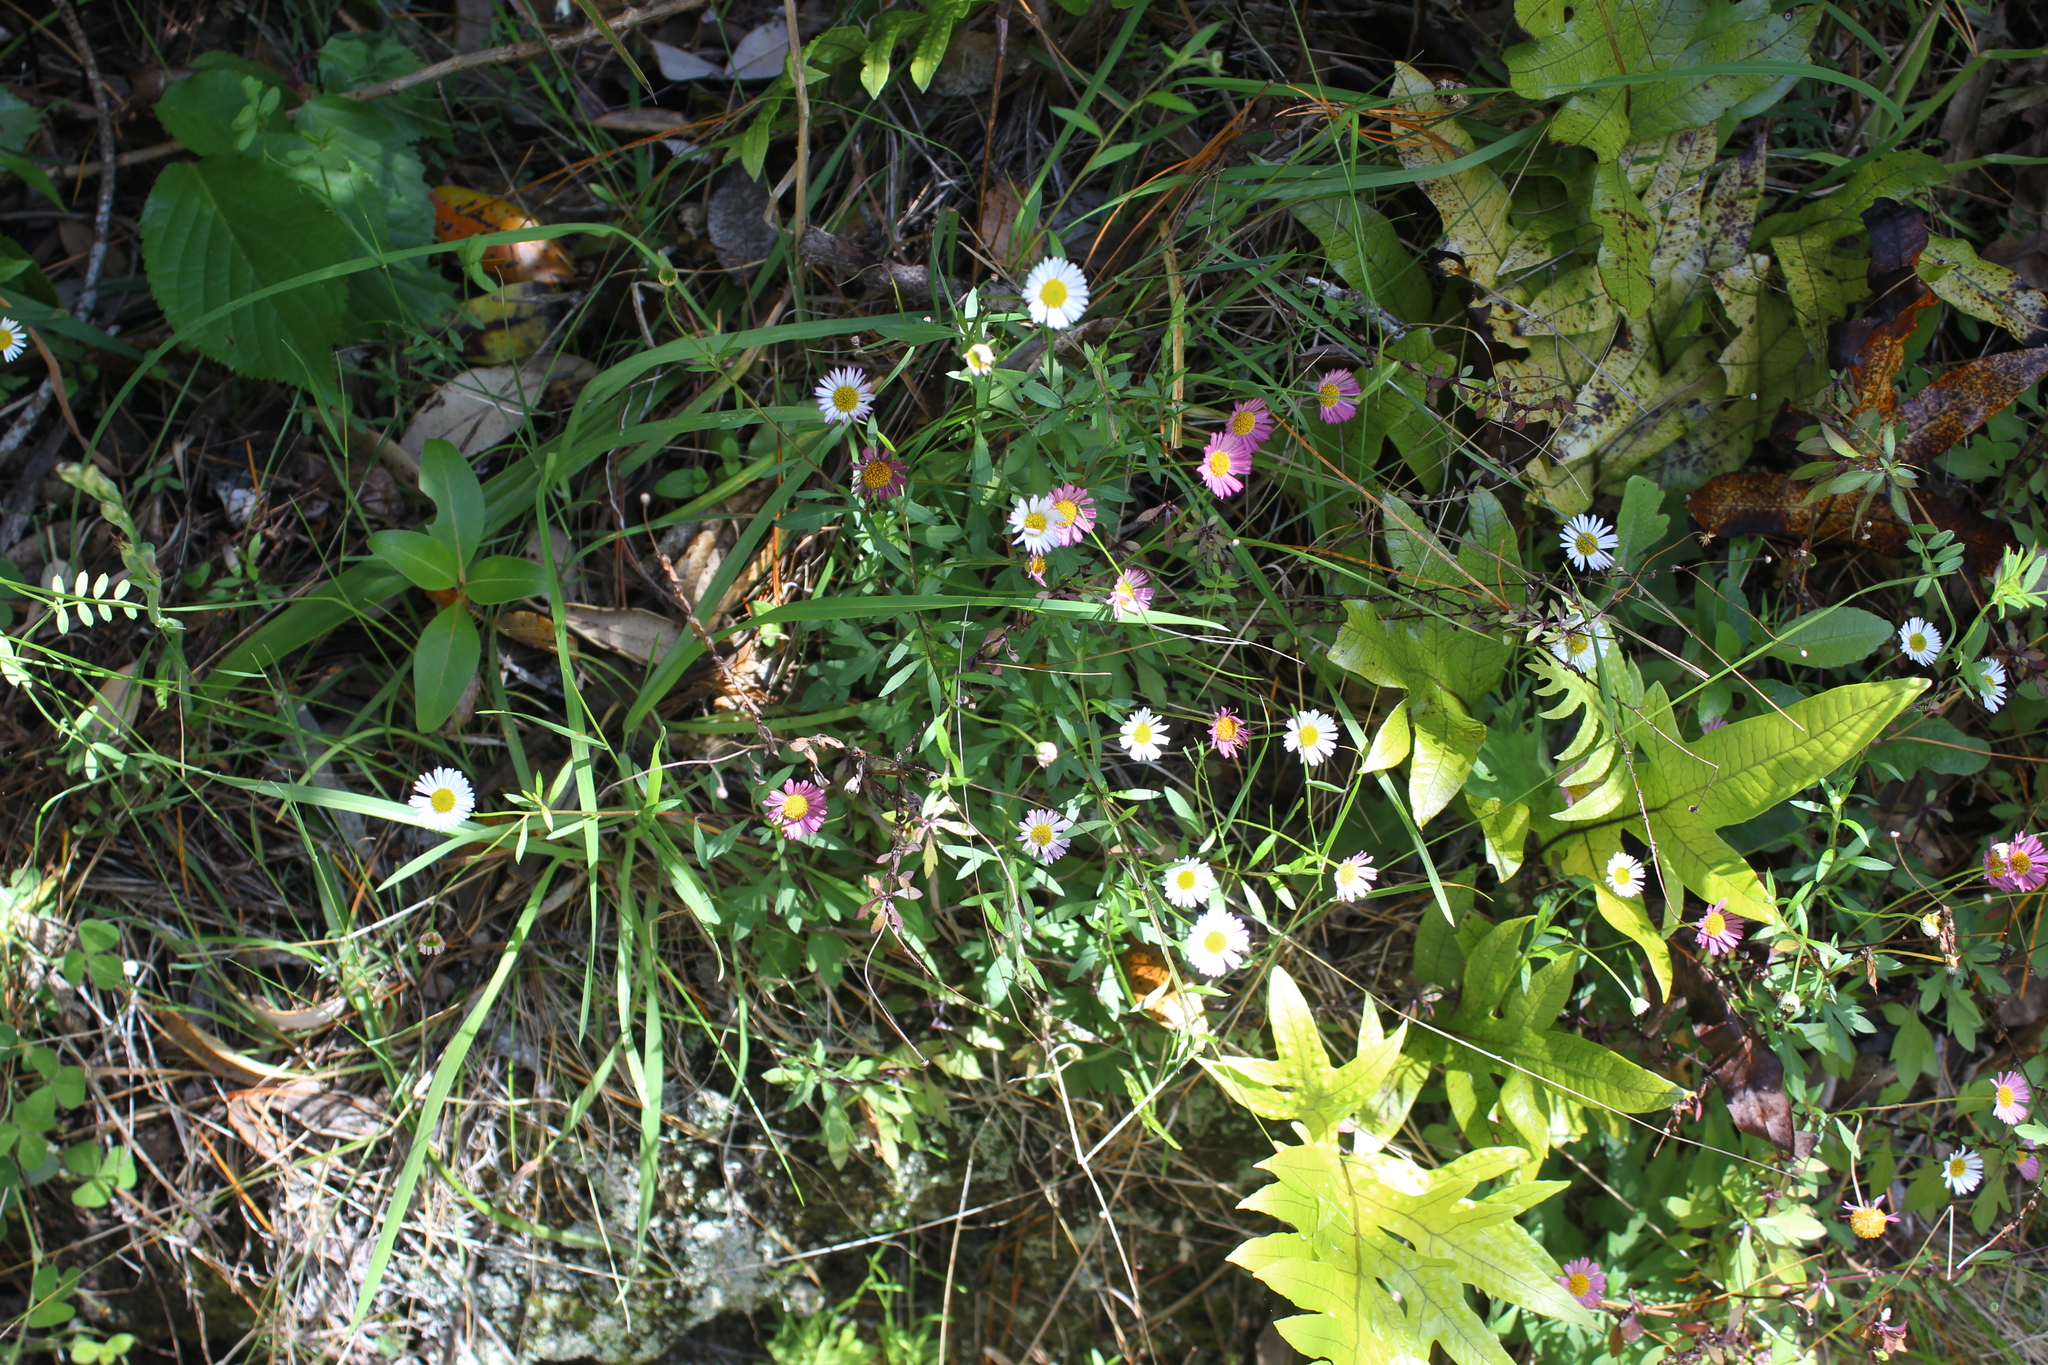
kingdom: Plantae
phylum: Tracheophyta
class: Magnoliopsida
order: Asterales
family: Asteraceae
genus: Erigeron
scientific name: Erigeron karvinskianus
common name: Mexican fleabane
